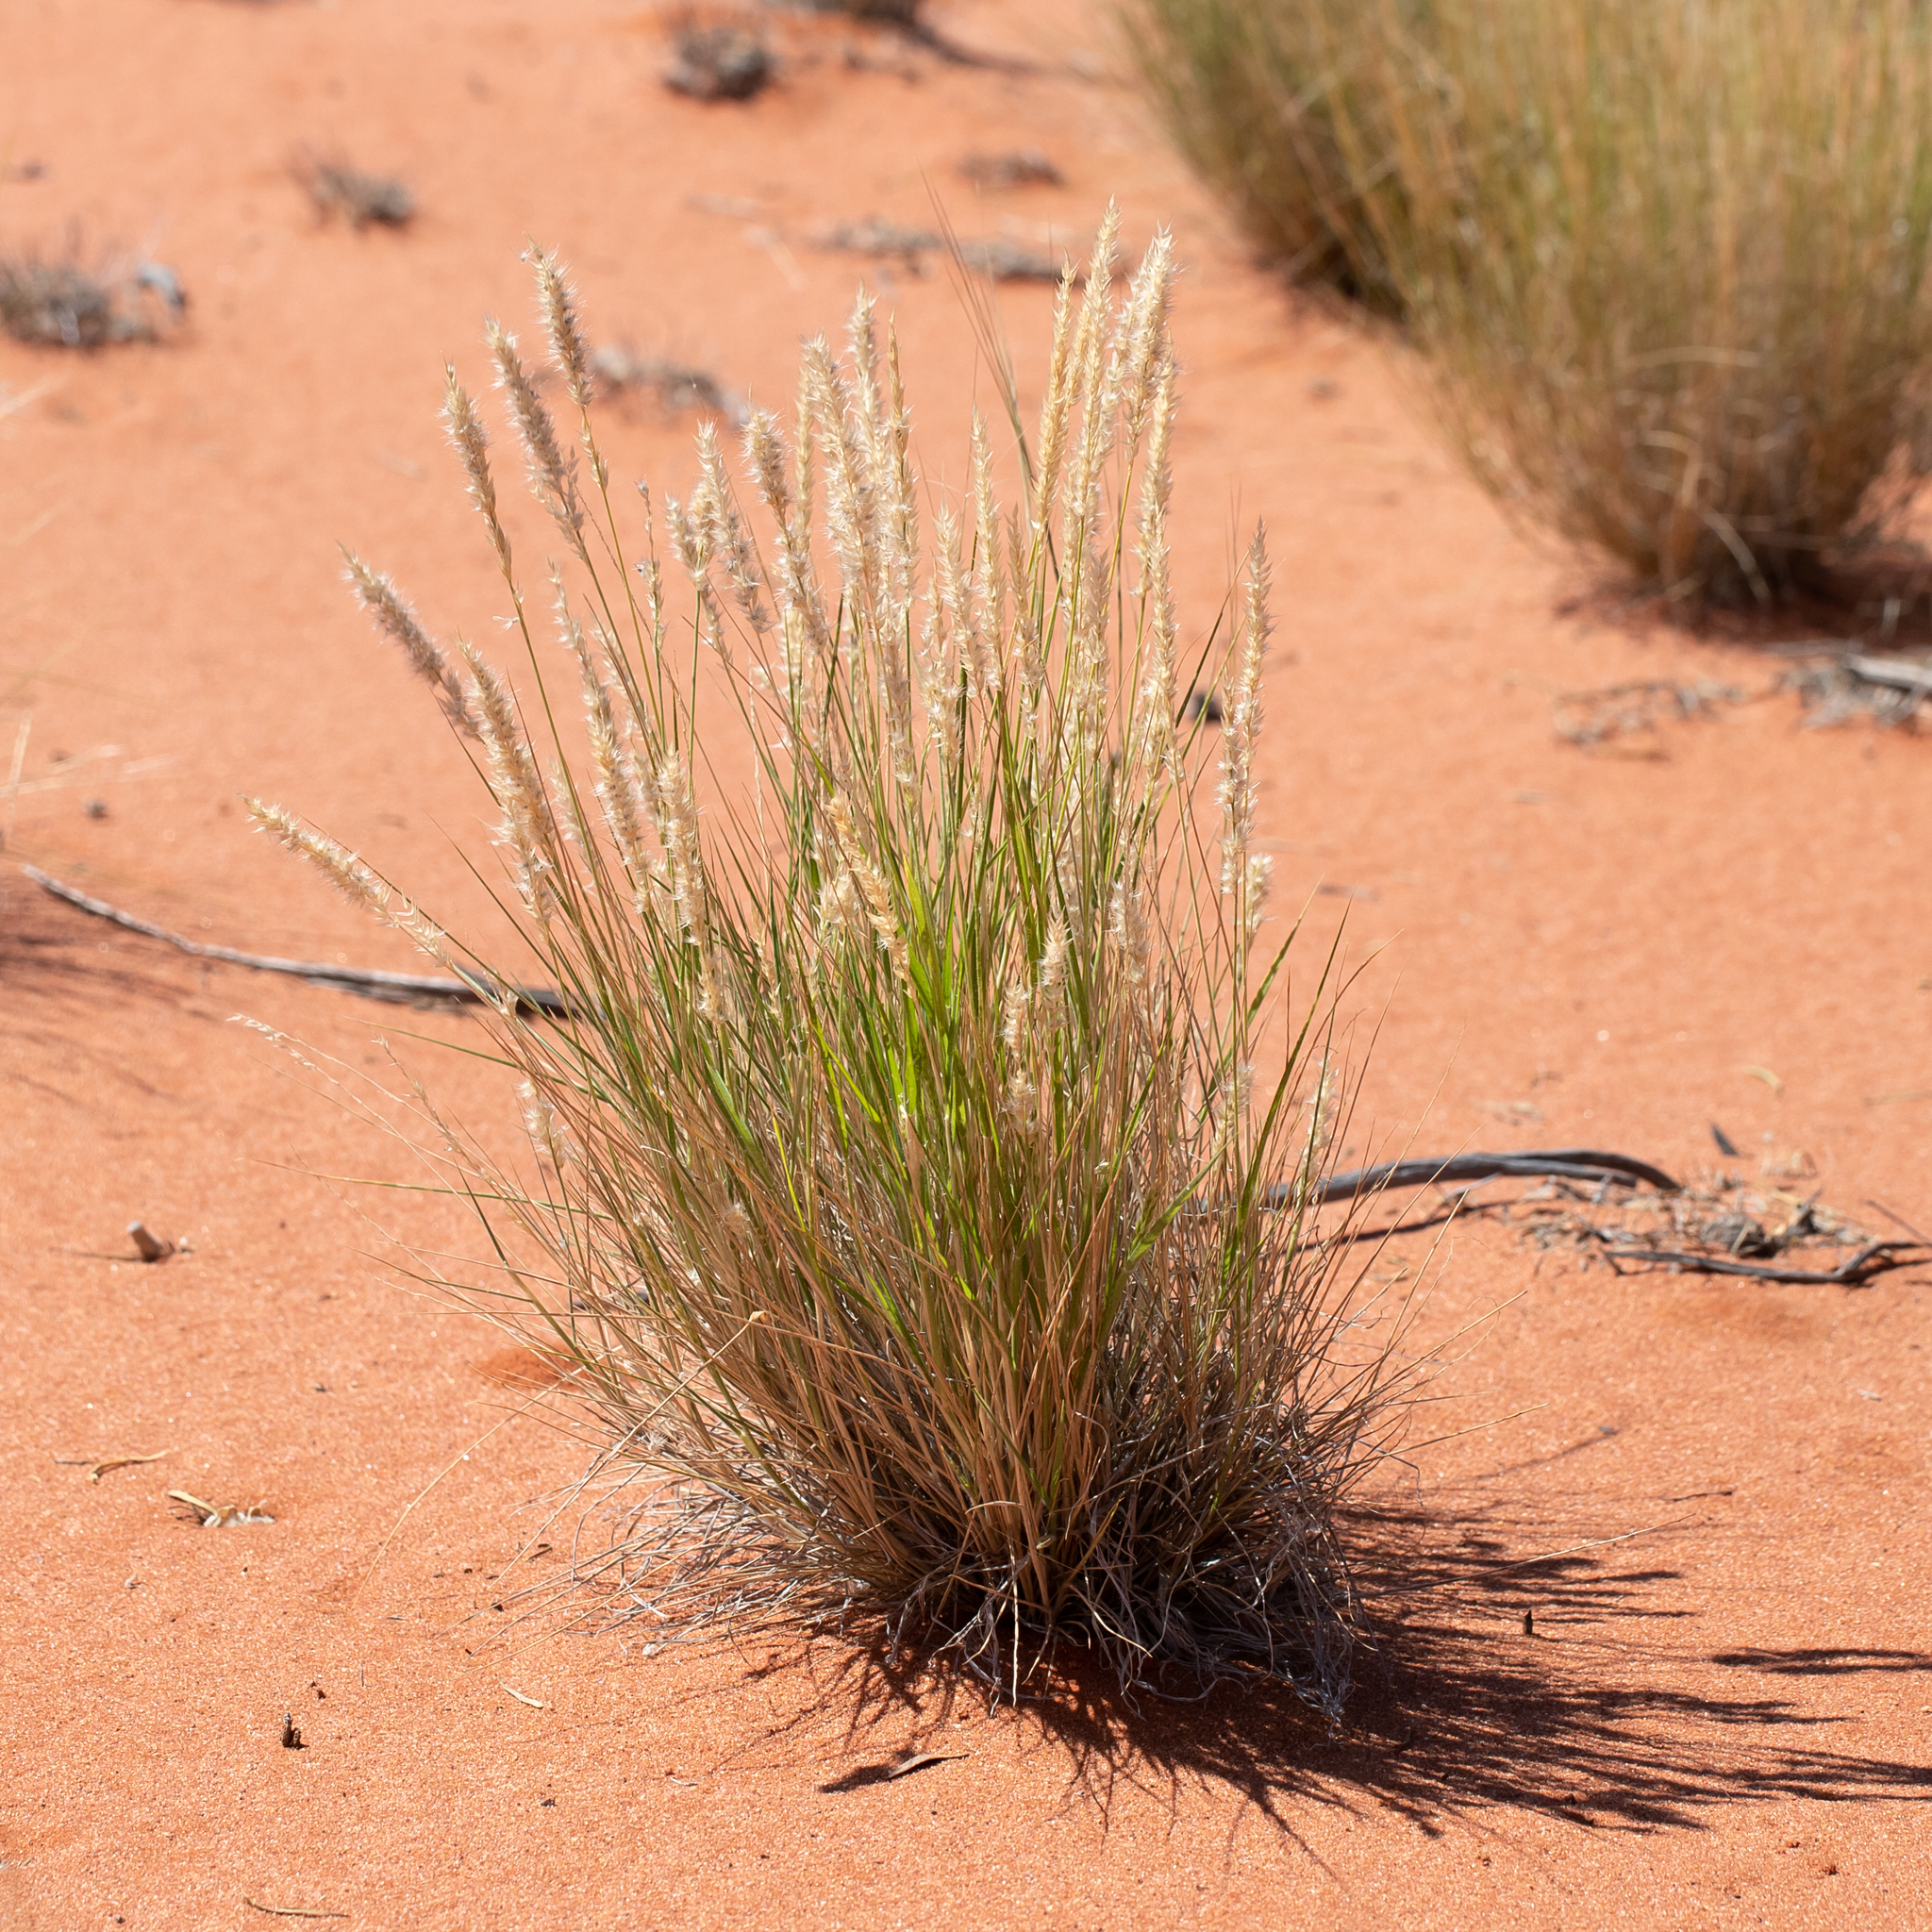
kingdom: Plantae
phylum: Tracheophyta
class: Liliopsida
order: Poales
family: Poaceae
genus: Enneapogon
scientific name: Enneapogon cylindricus
